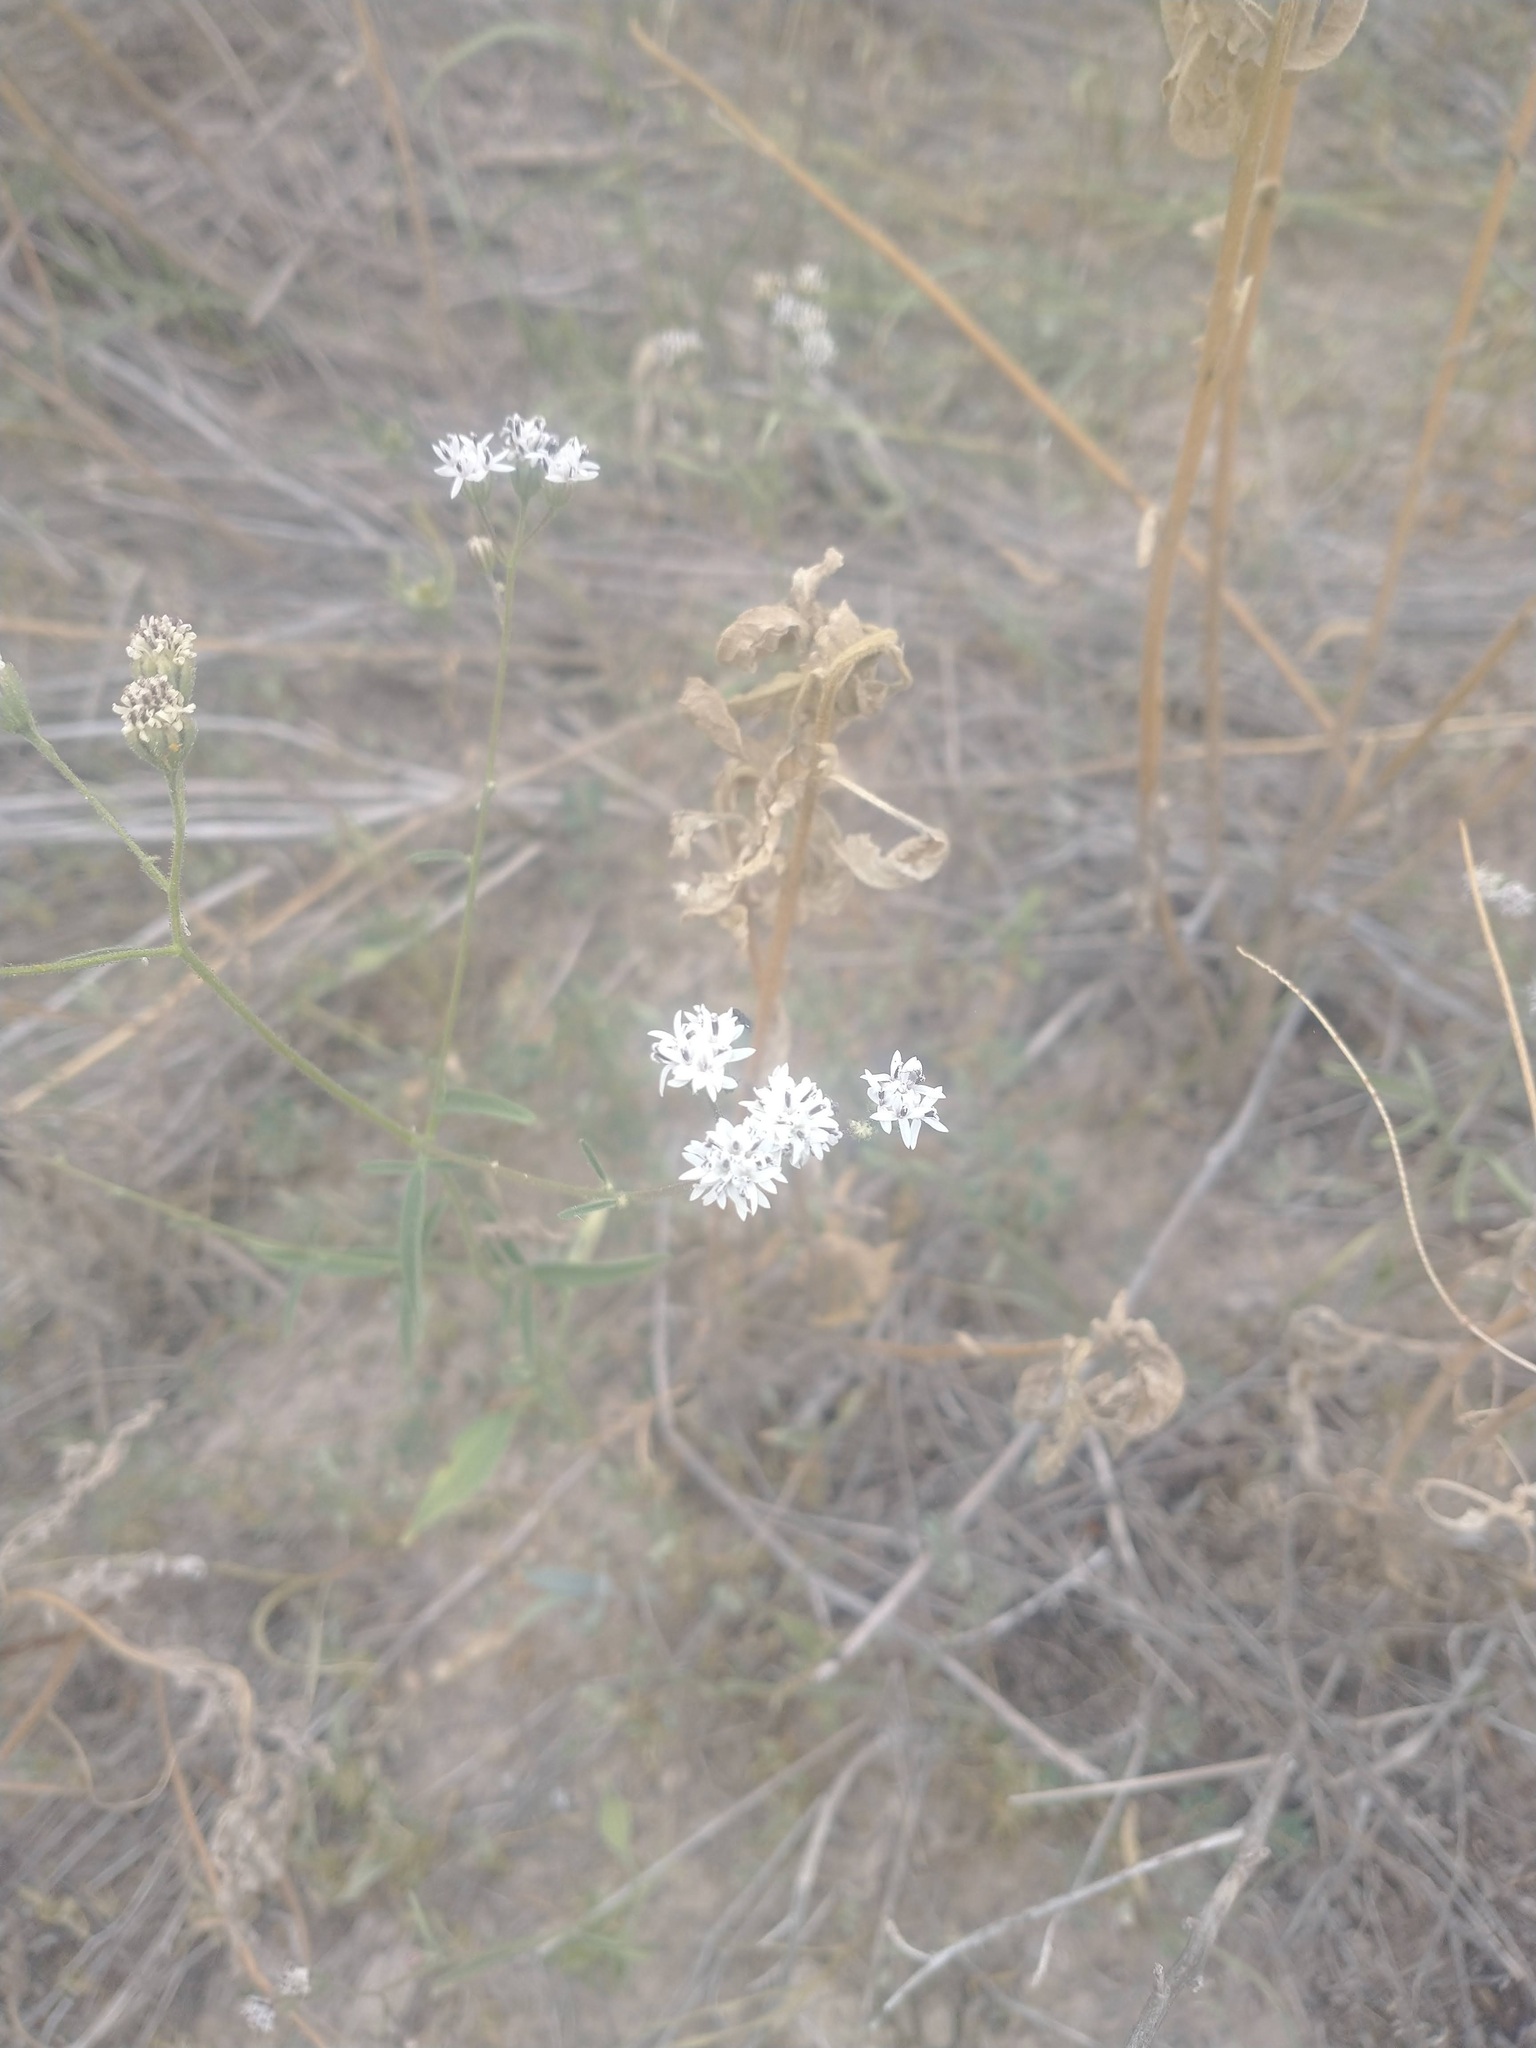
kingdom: Plantae
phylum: Tracheophyta
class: Magnoliopsida
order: Asterales
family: Asteraceae
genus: Florestina
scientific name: Florestina tripteris
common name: Sticky florestina
